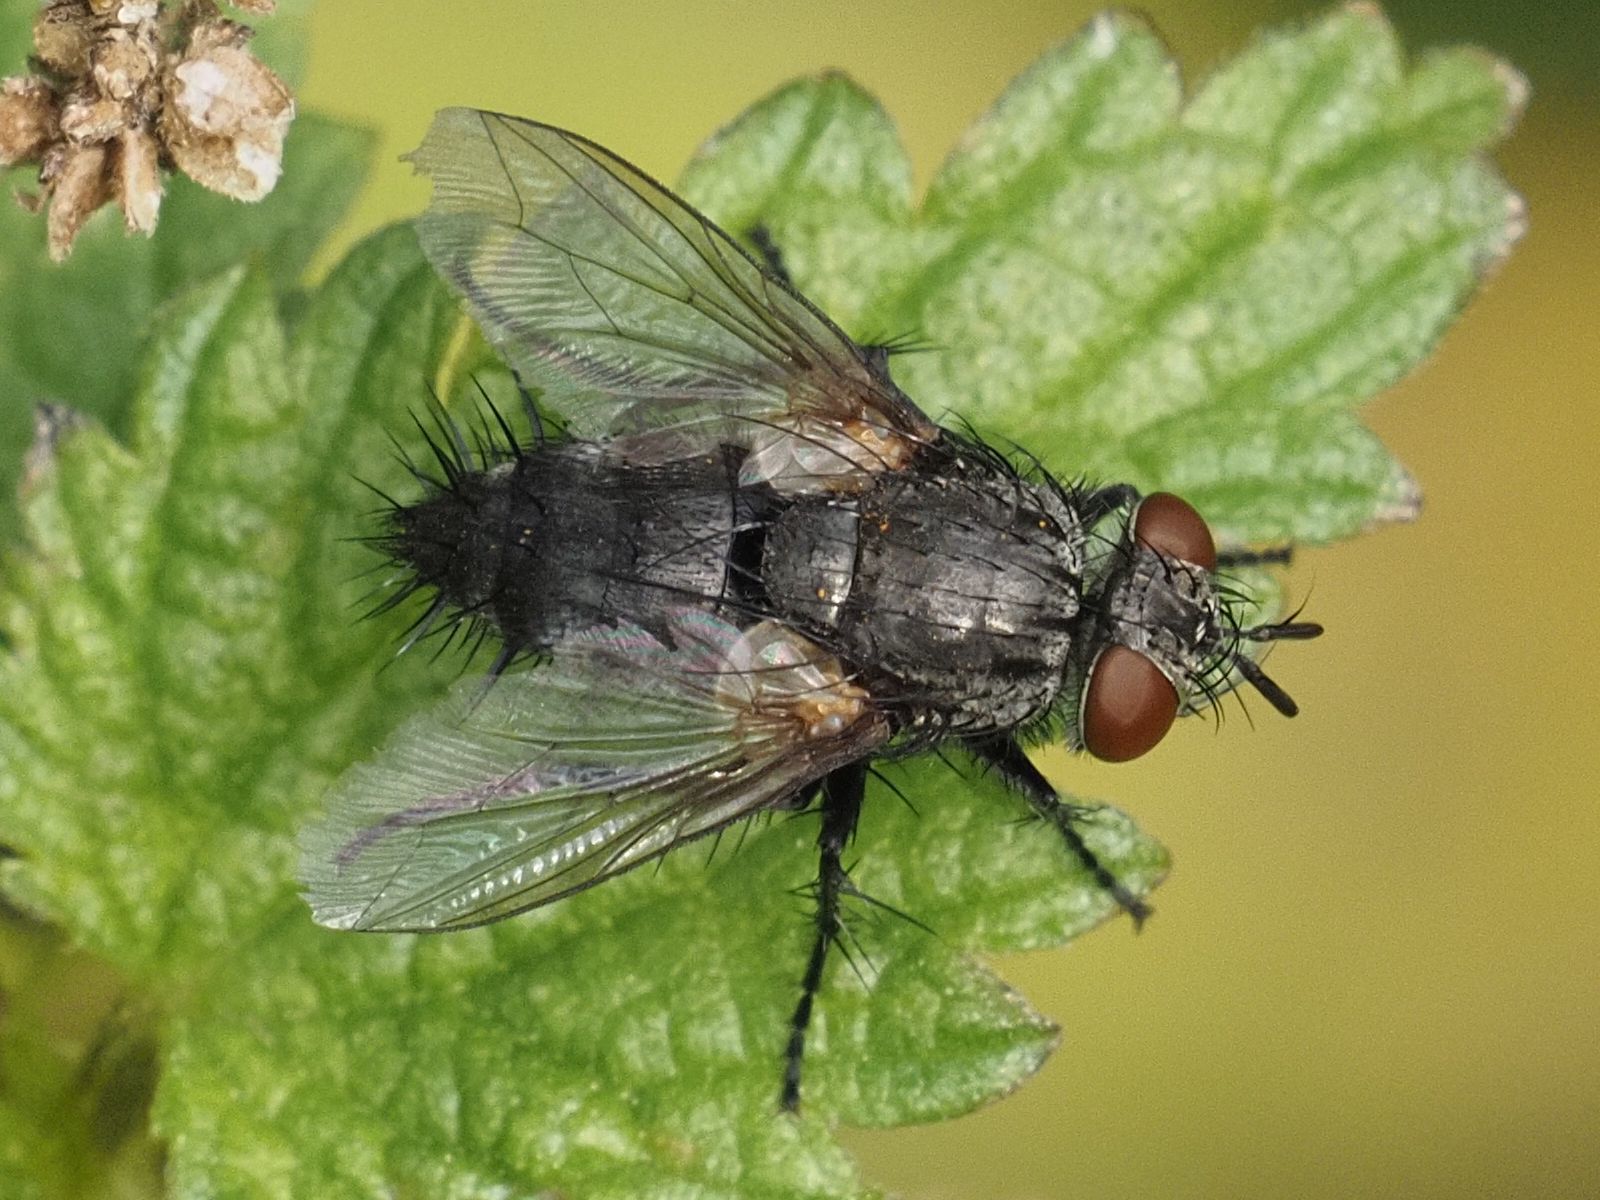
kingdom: Animalia
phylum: Arthropoda
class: Insecta
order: Diptera
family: Tachinidae
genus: Voria
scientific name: Voria ruralis
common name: Parasitic fly
